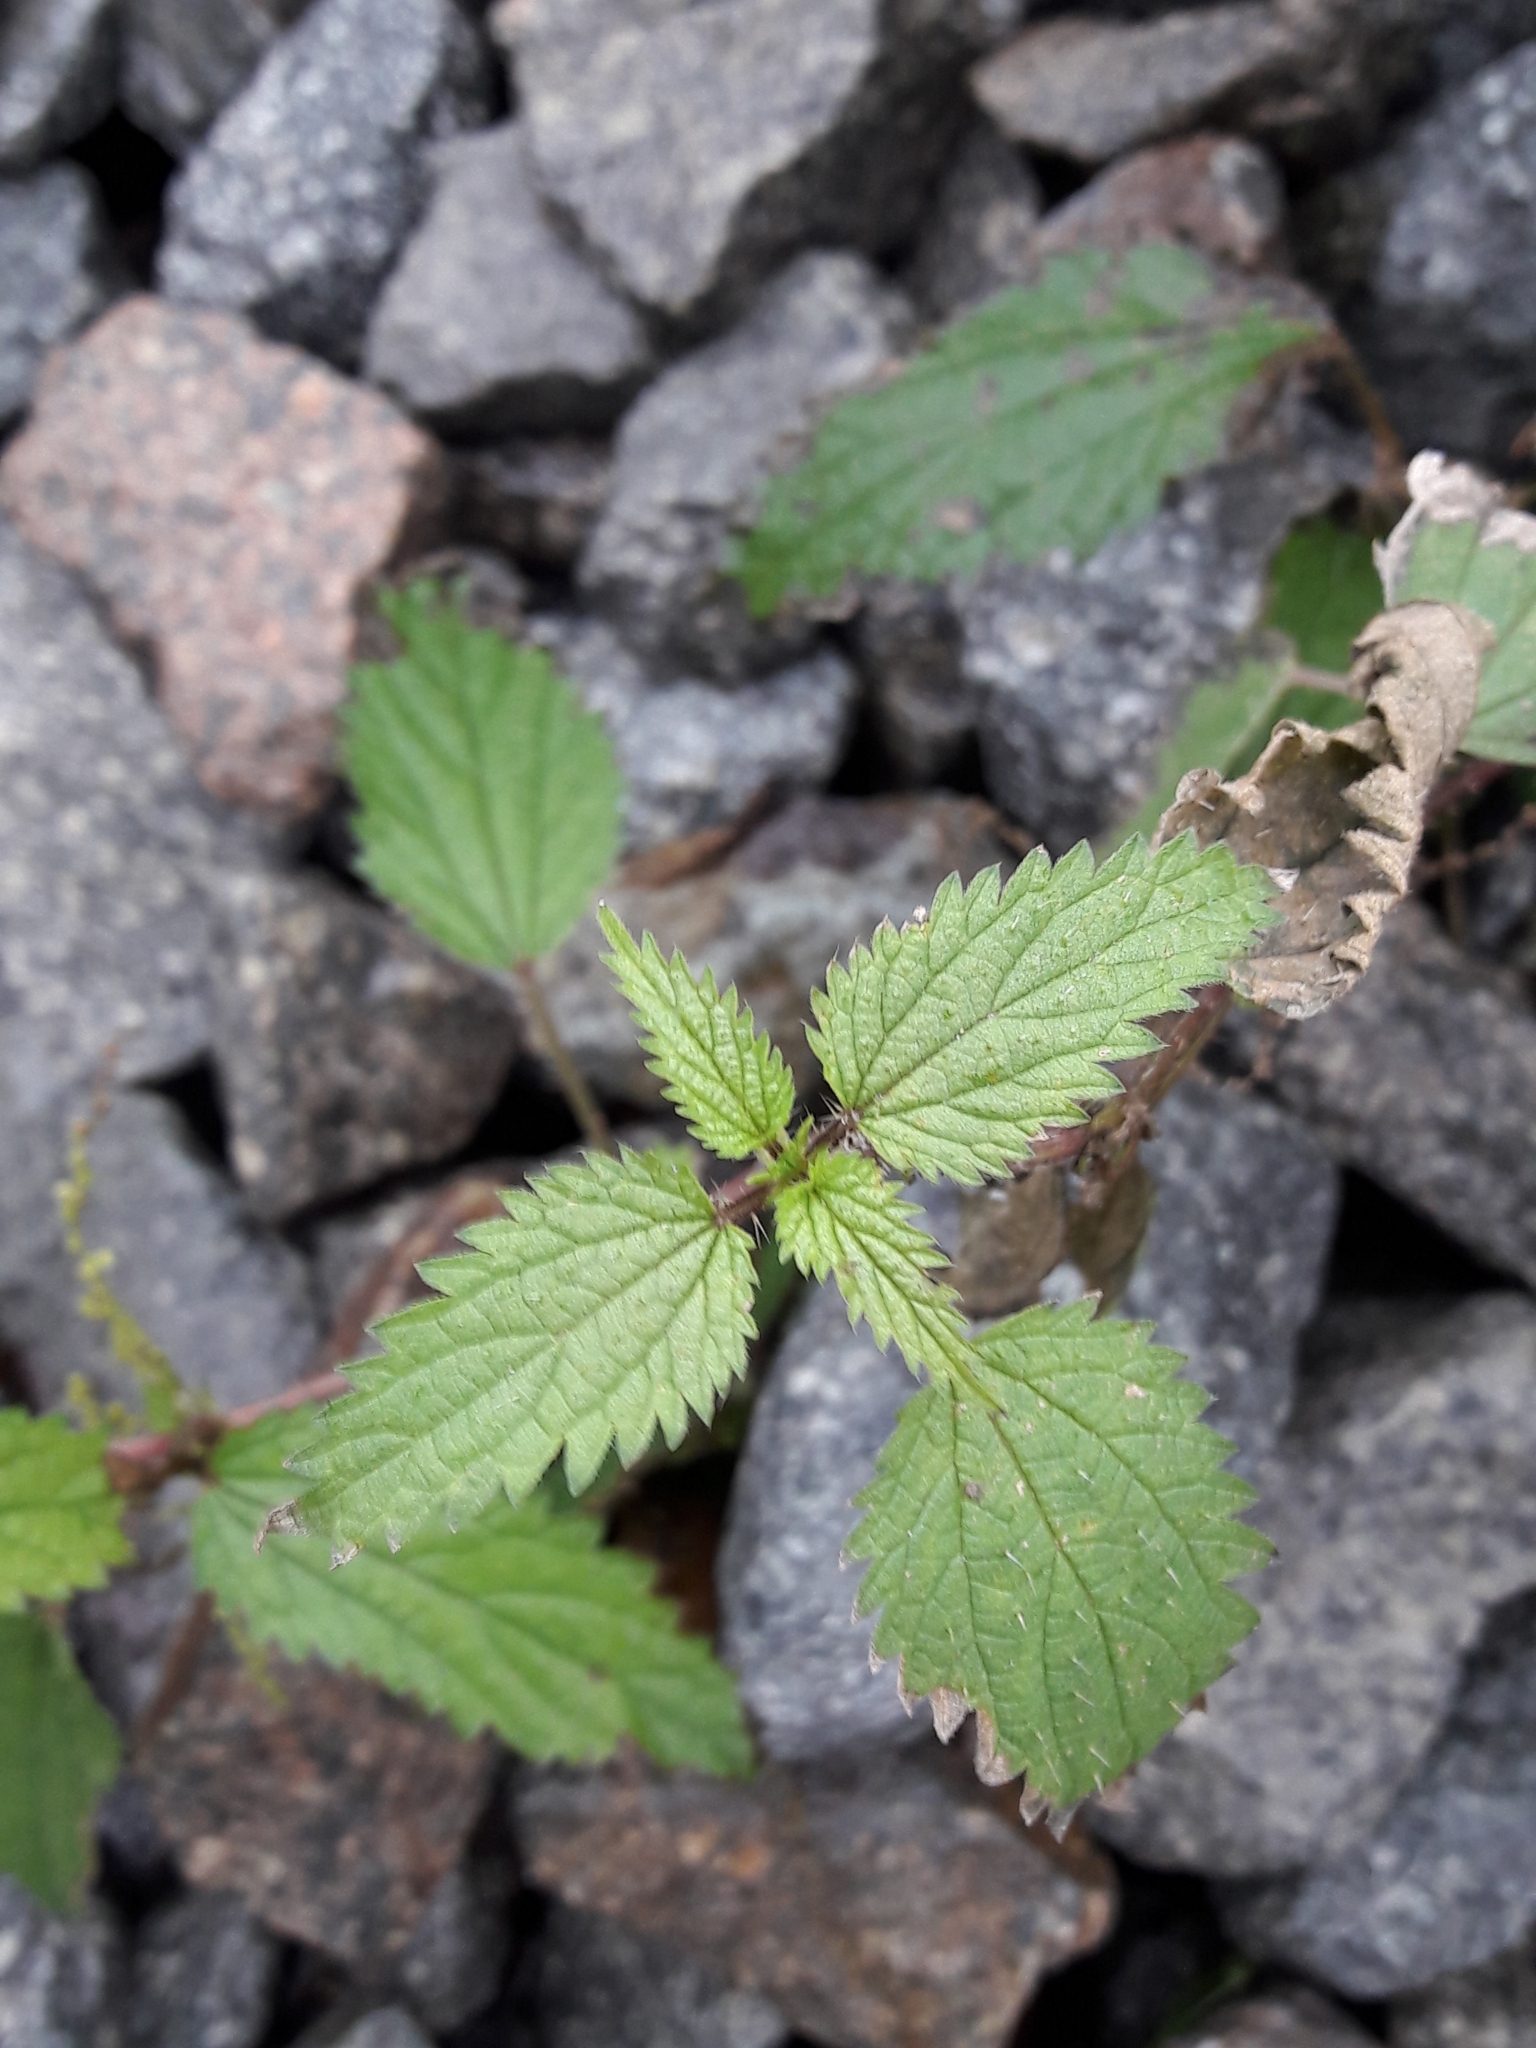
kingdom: Plantae
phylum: Tracheophyta
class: Magnoliopsida
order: Rosales
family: Urticaceae
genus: Urtica
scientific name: Urtica dioica
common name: Common nettle
